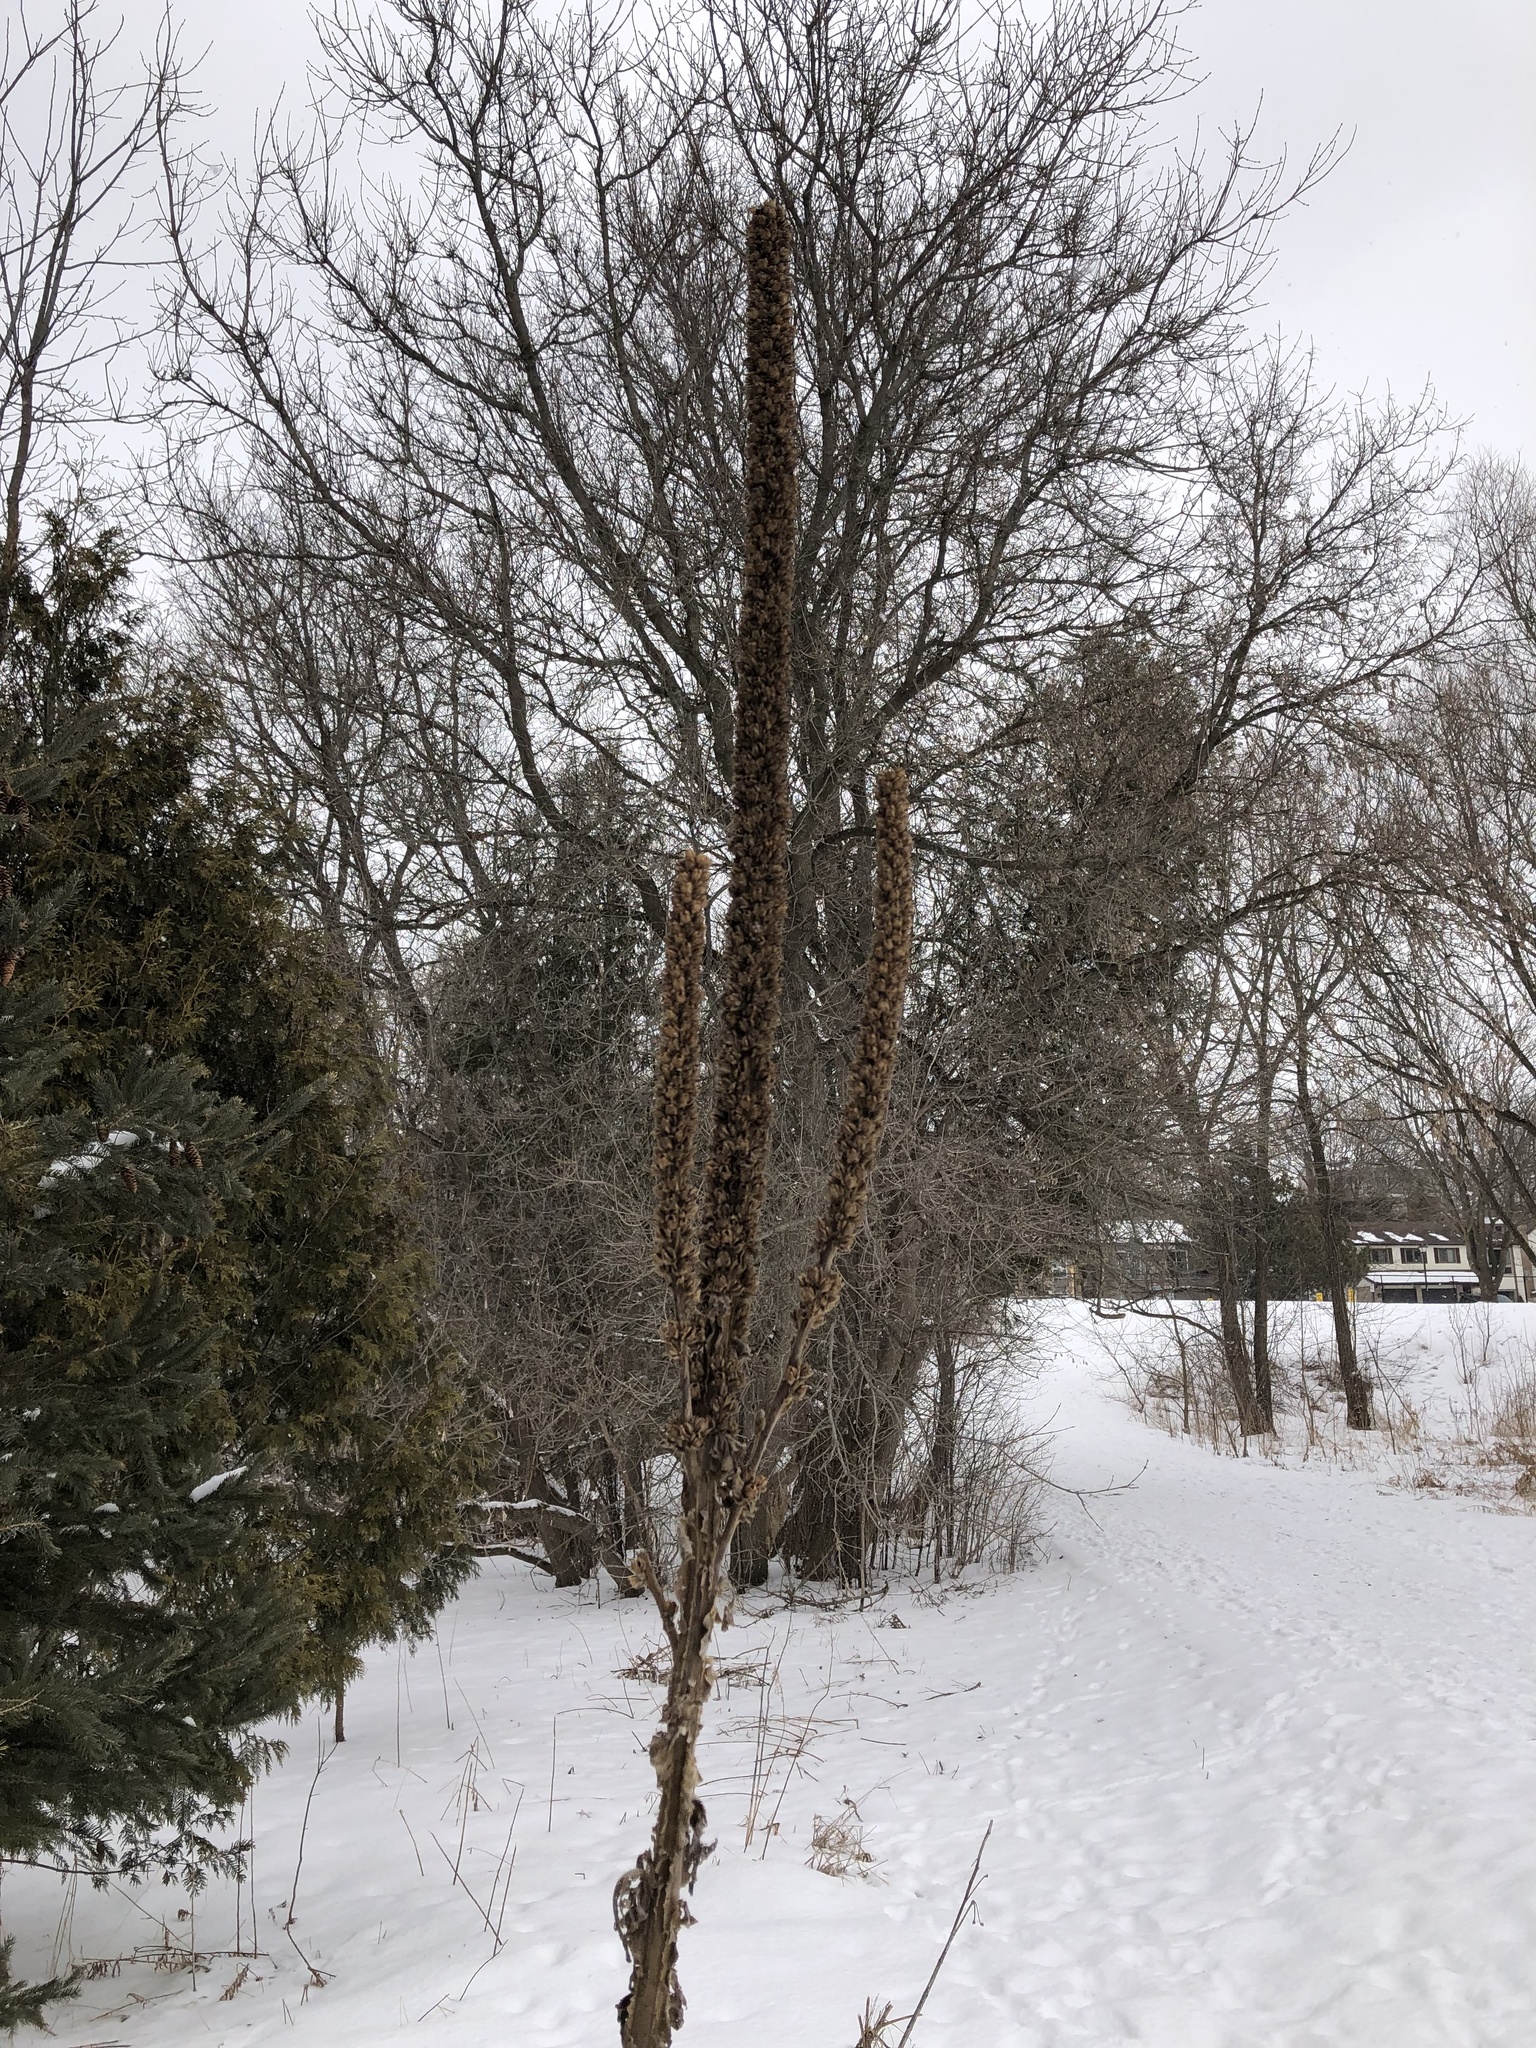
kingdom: Plantae
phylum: Tracheophyta
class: Magnoliopsida
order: Lamiales
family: Scrophulariaceae
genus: Verbascum
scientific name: Verbascum thapsus
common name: Common mullein
